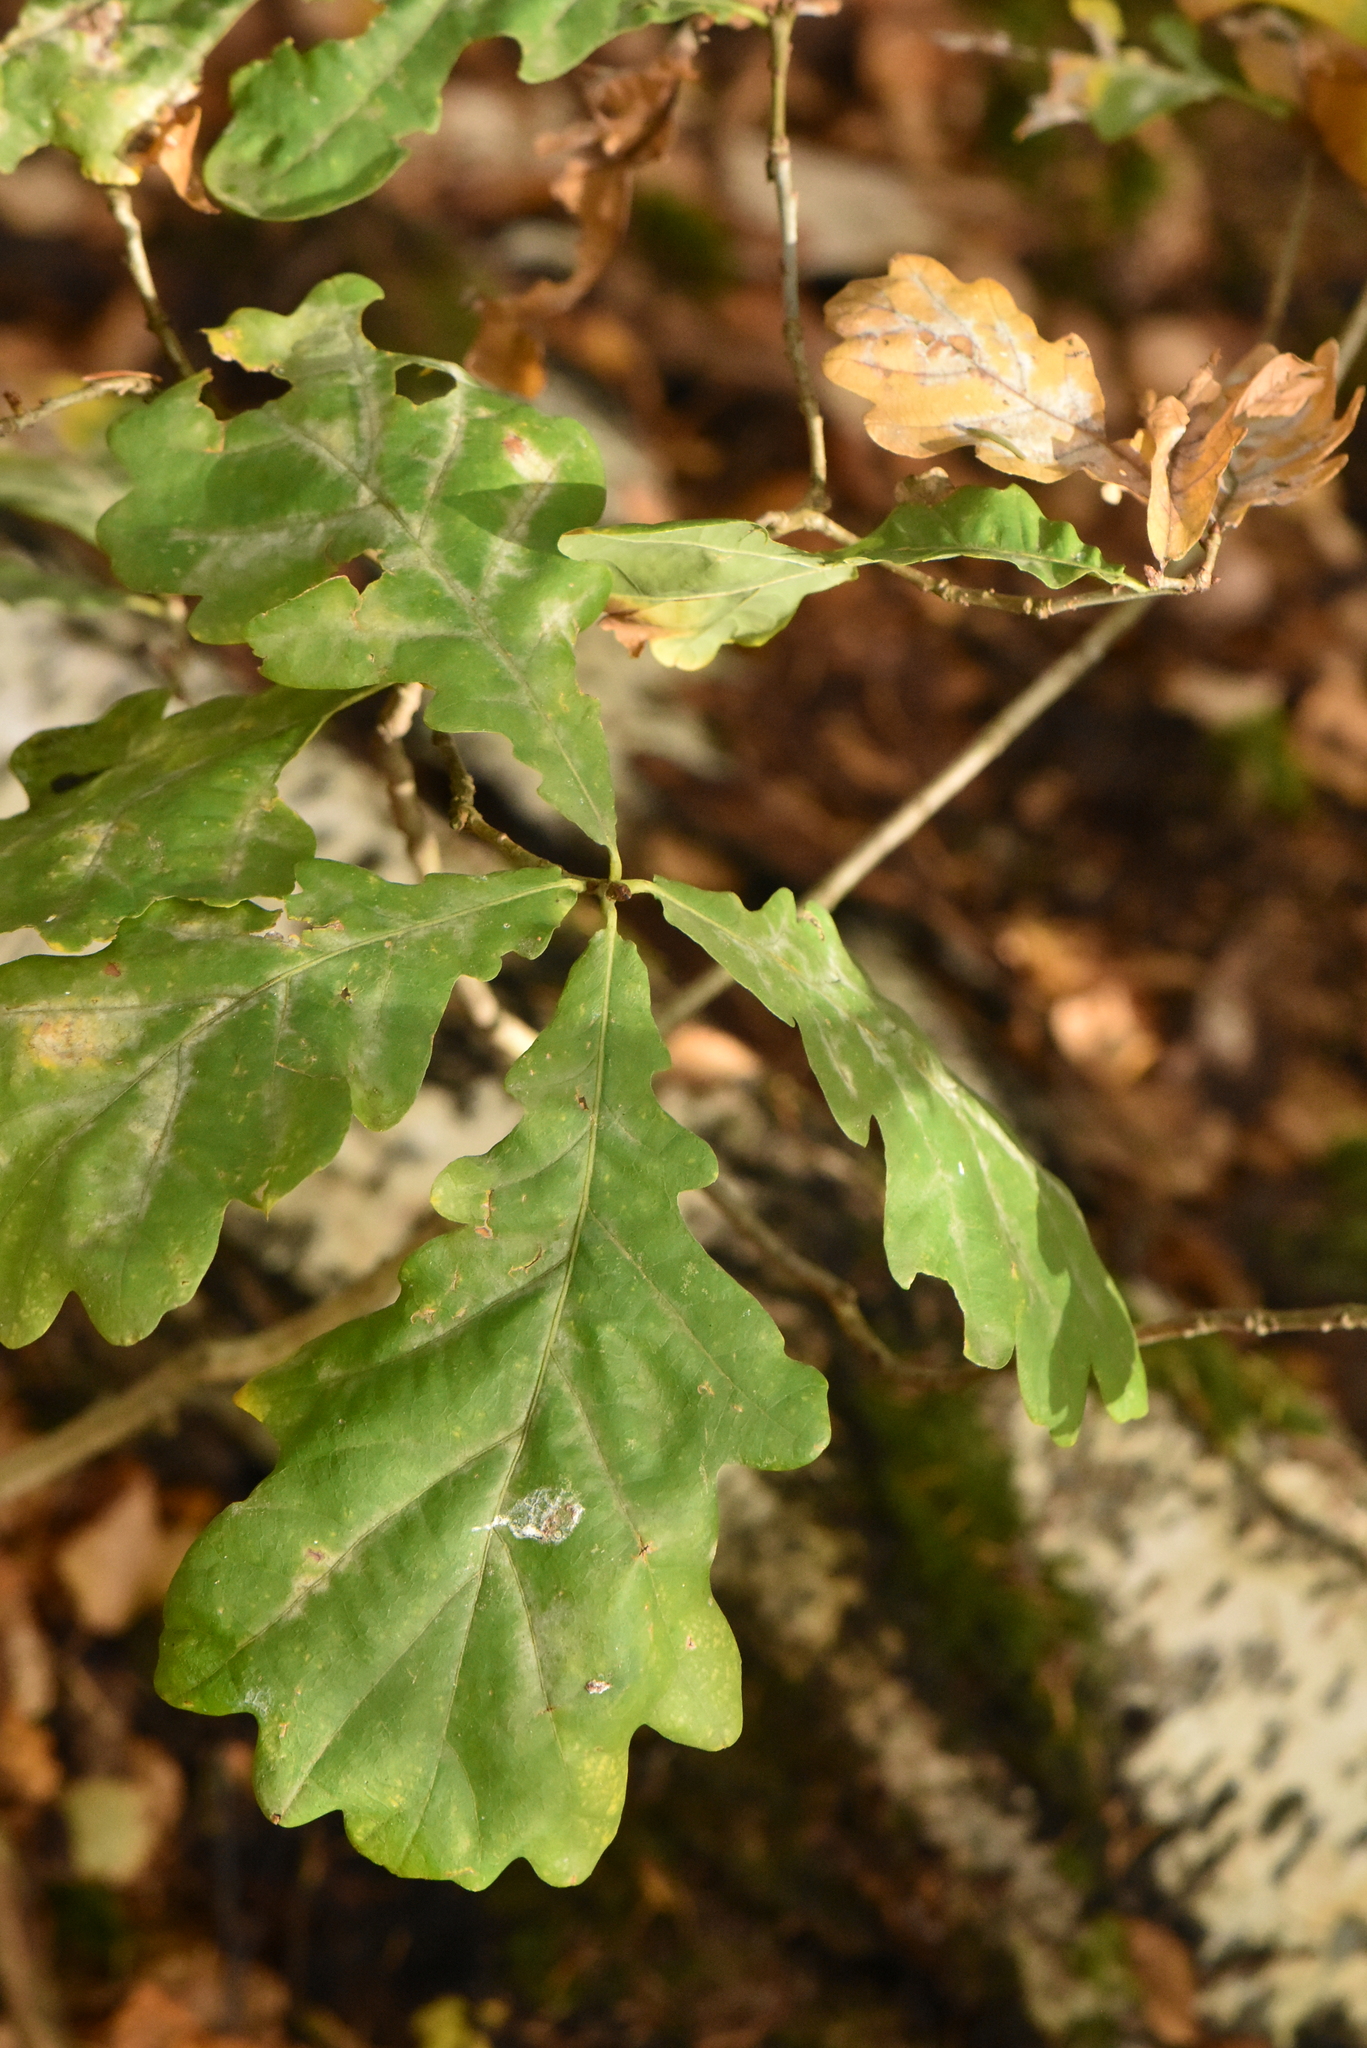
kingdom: Plantae
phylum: Tracheophyta
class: Magnoliopsida
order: Fagales
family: Fagaceae
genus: Quercus
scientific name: Quercus robur
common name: Pedunculate oak
